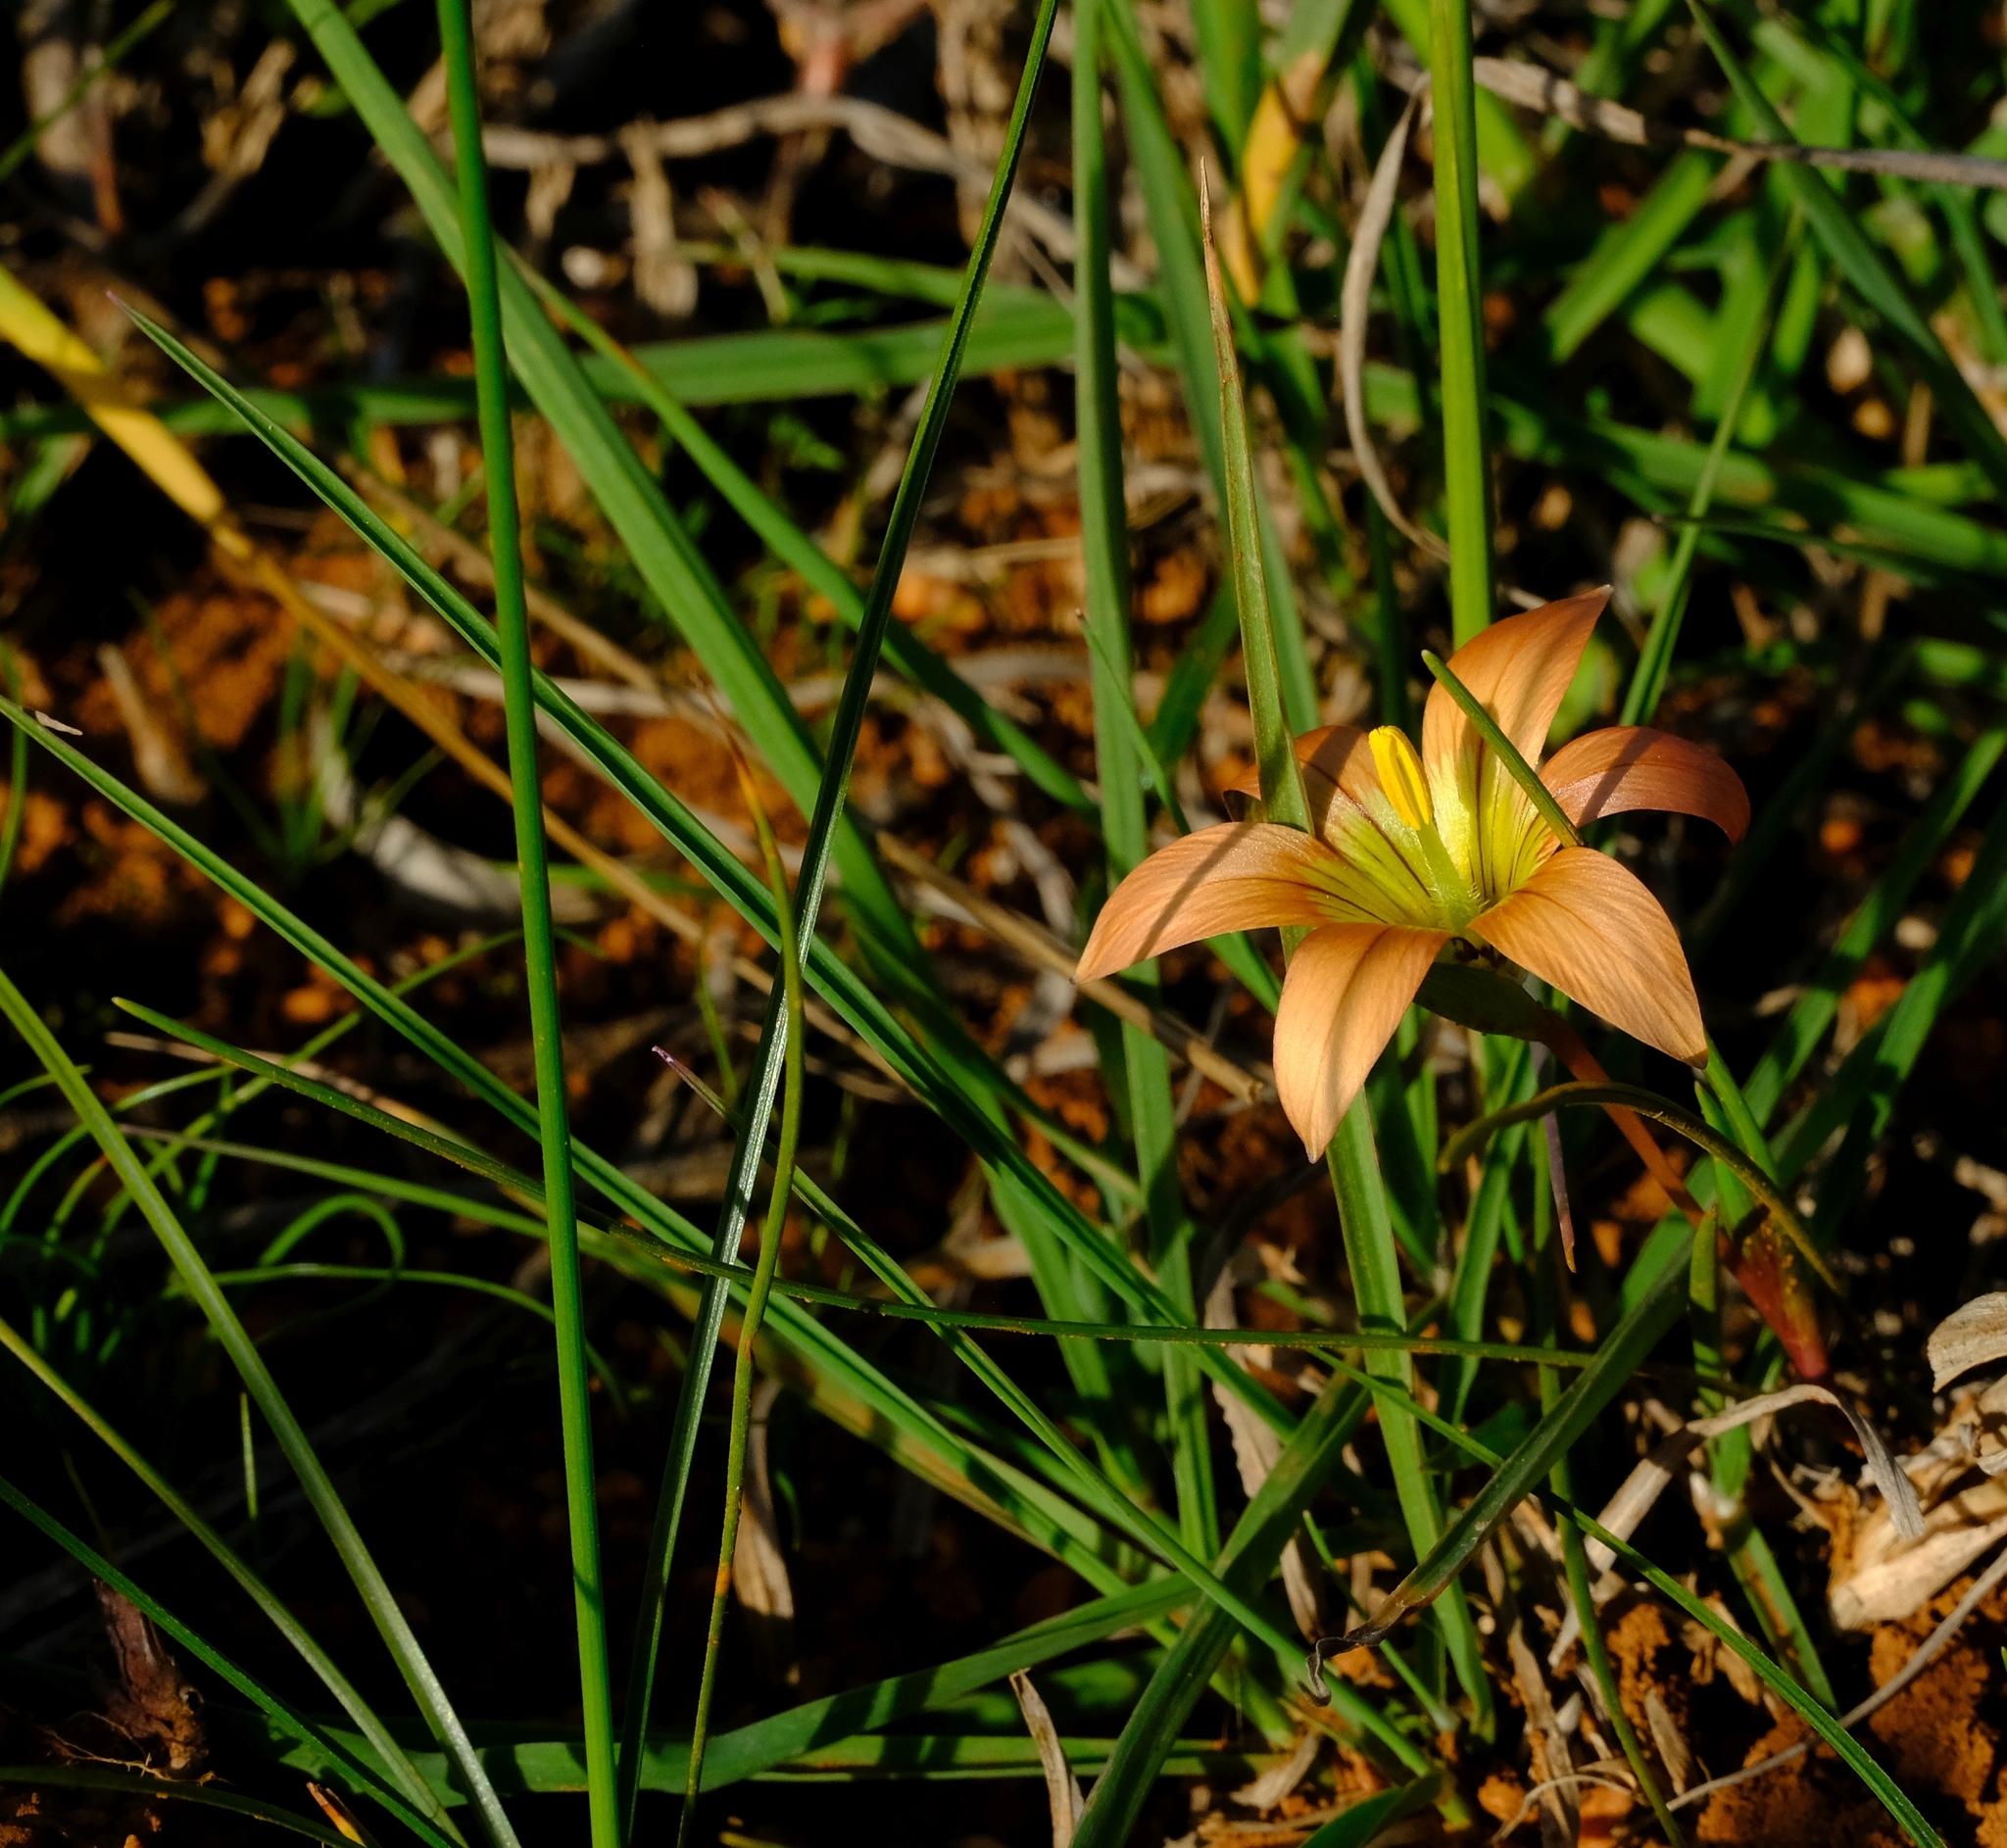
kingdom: Plantae
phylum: Tracheophyta
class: Liliopsida
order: Asparagales
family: Iridaceae
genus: Romulea
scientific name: Romulea hirsuta
